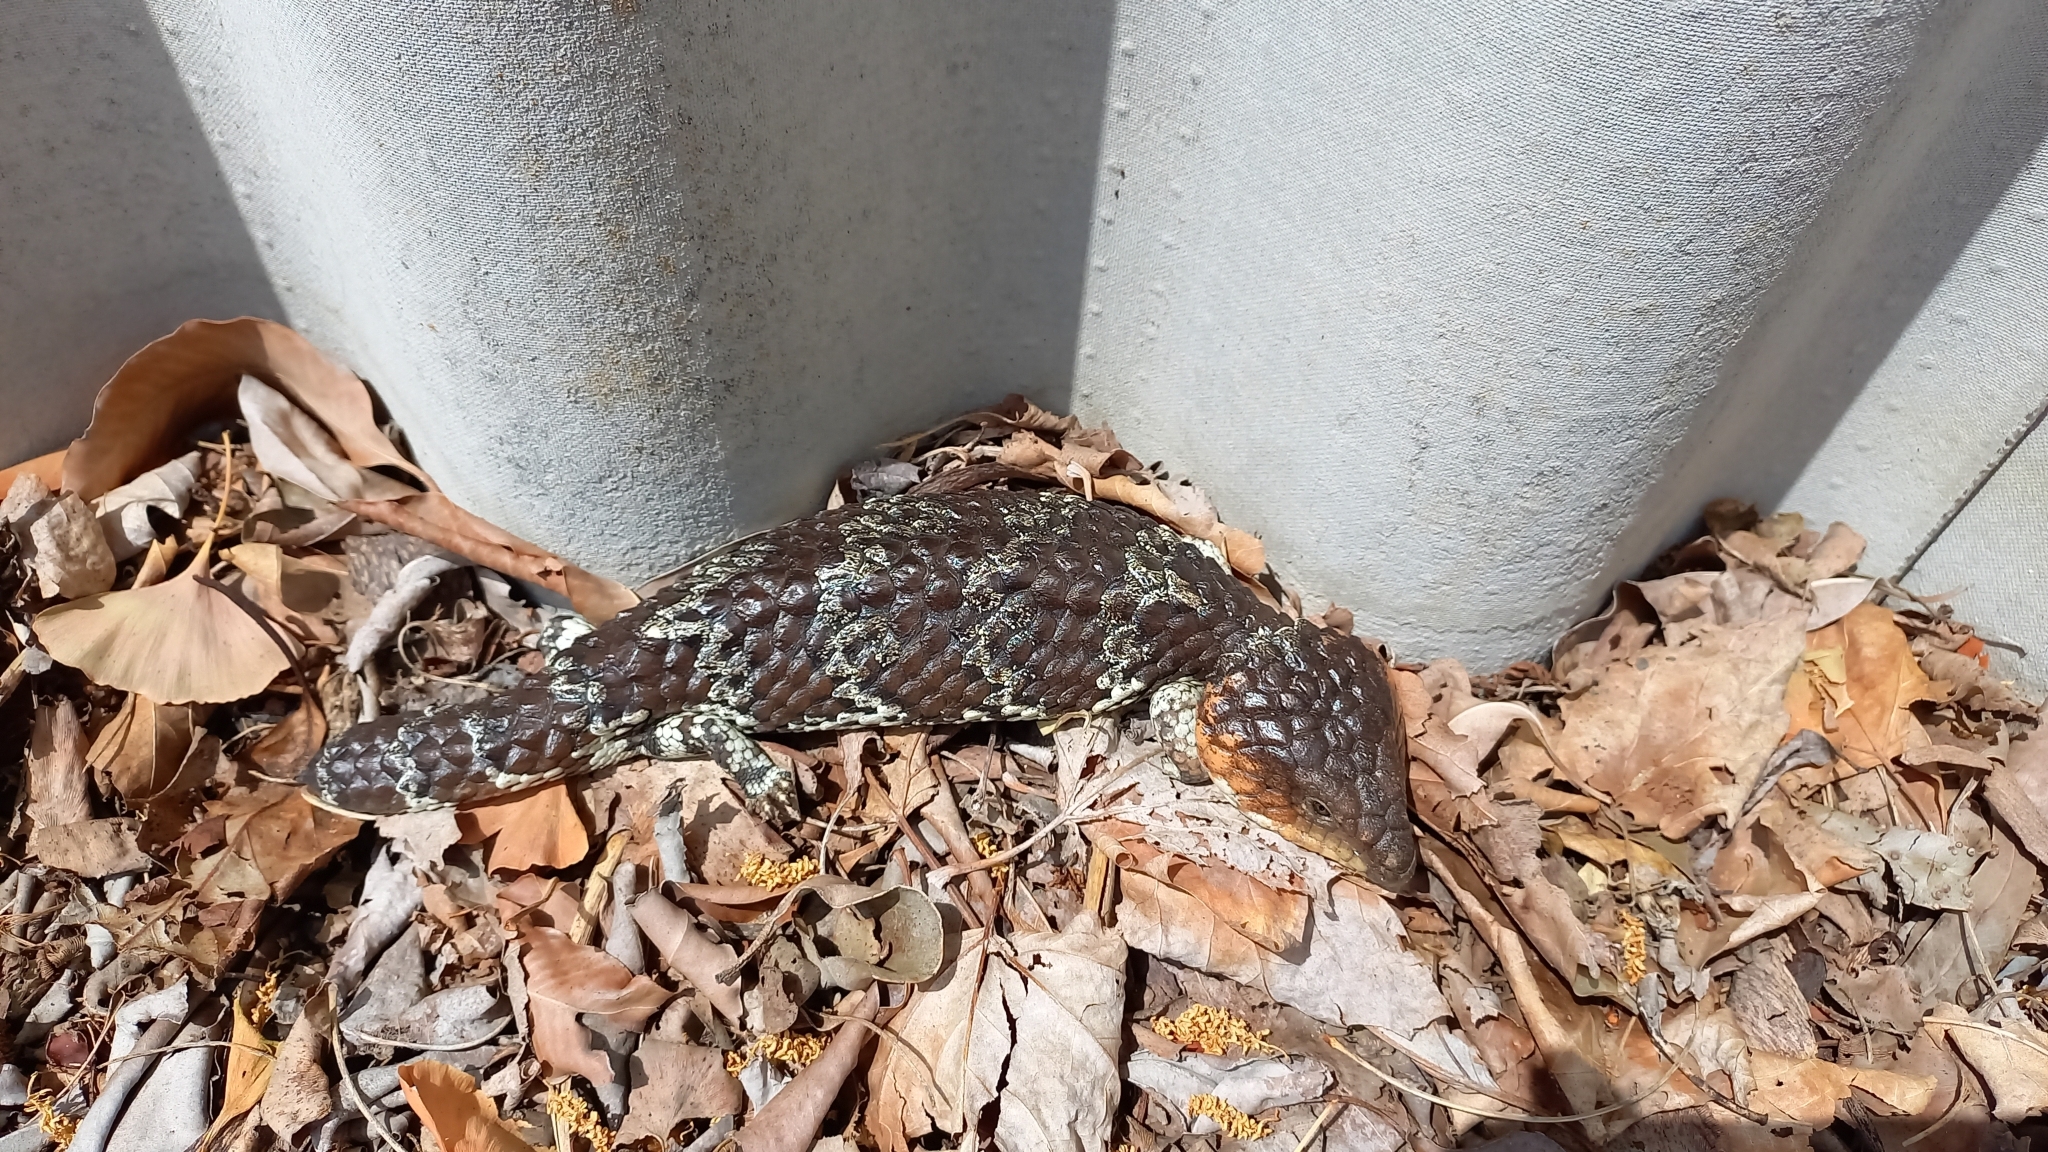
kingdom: Animalia
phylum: Chordata
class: Squamata
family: Scincidae
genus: Tiliqua
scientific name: Tiliqua rugosa
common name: Pinecone lizard
